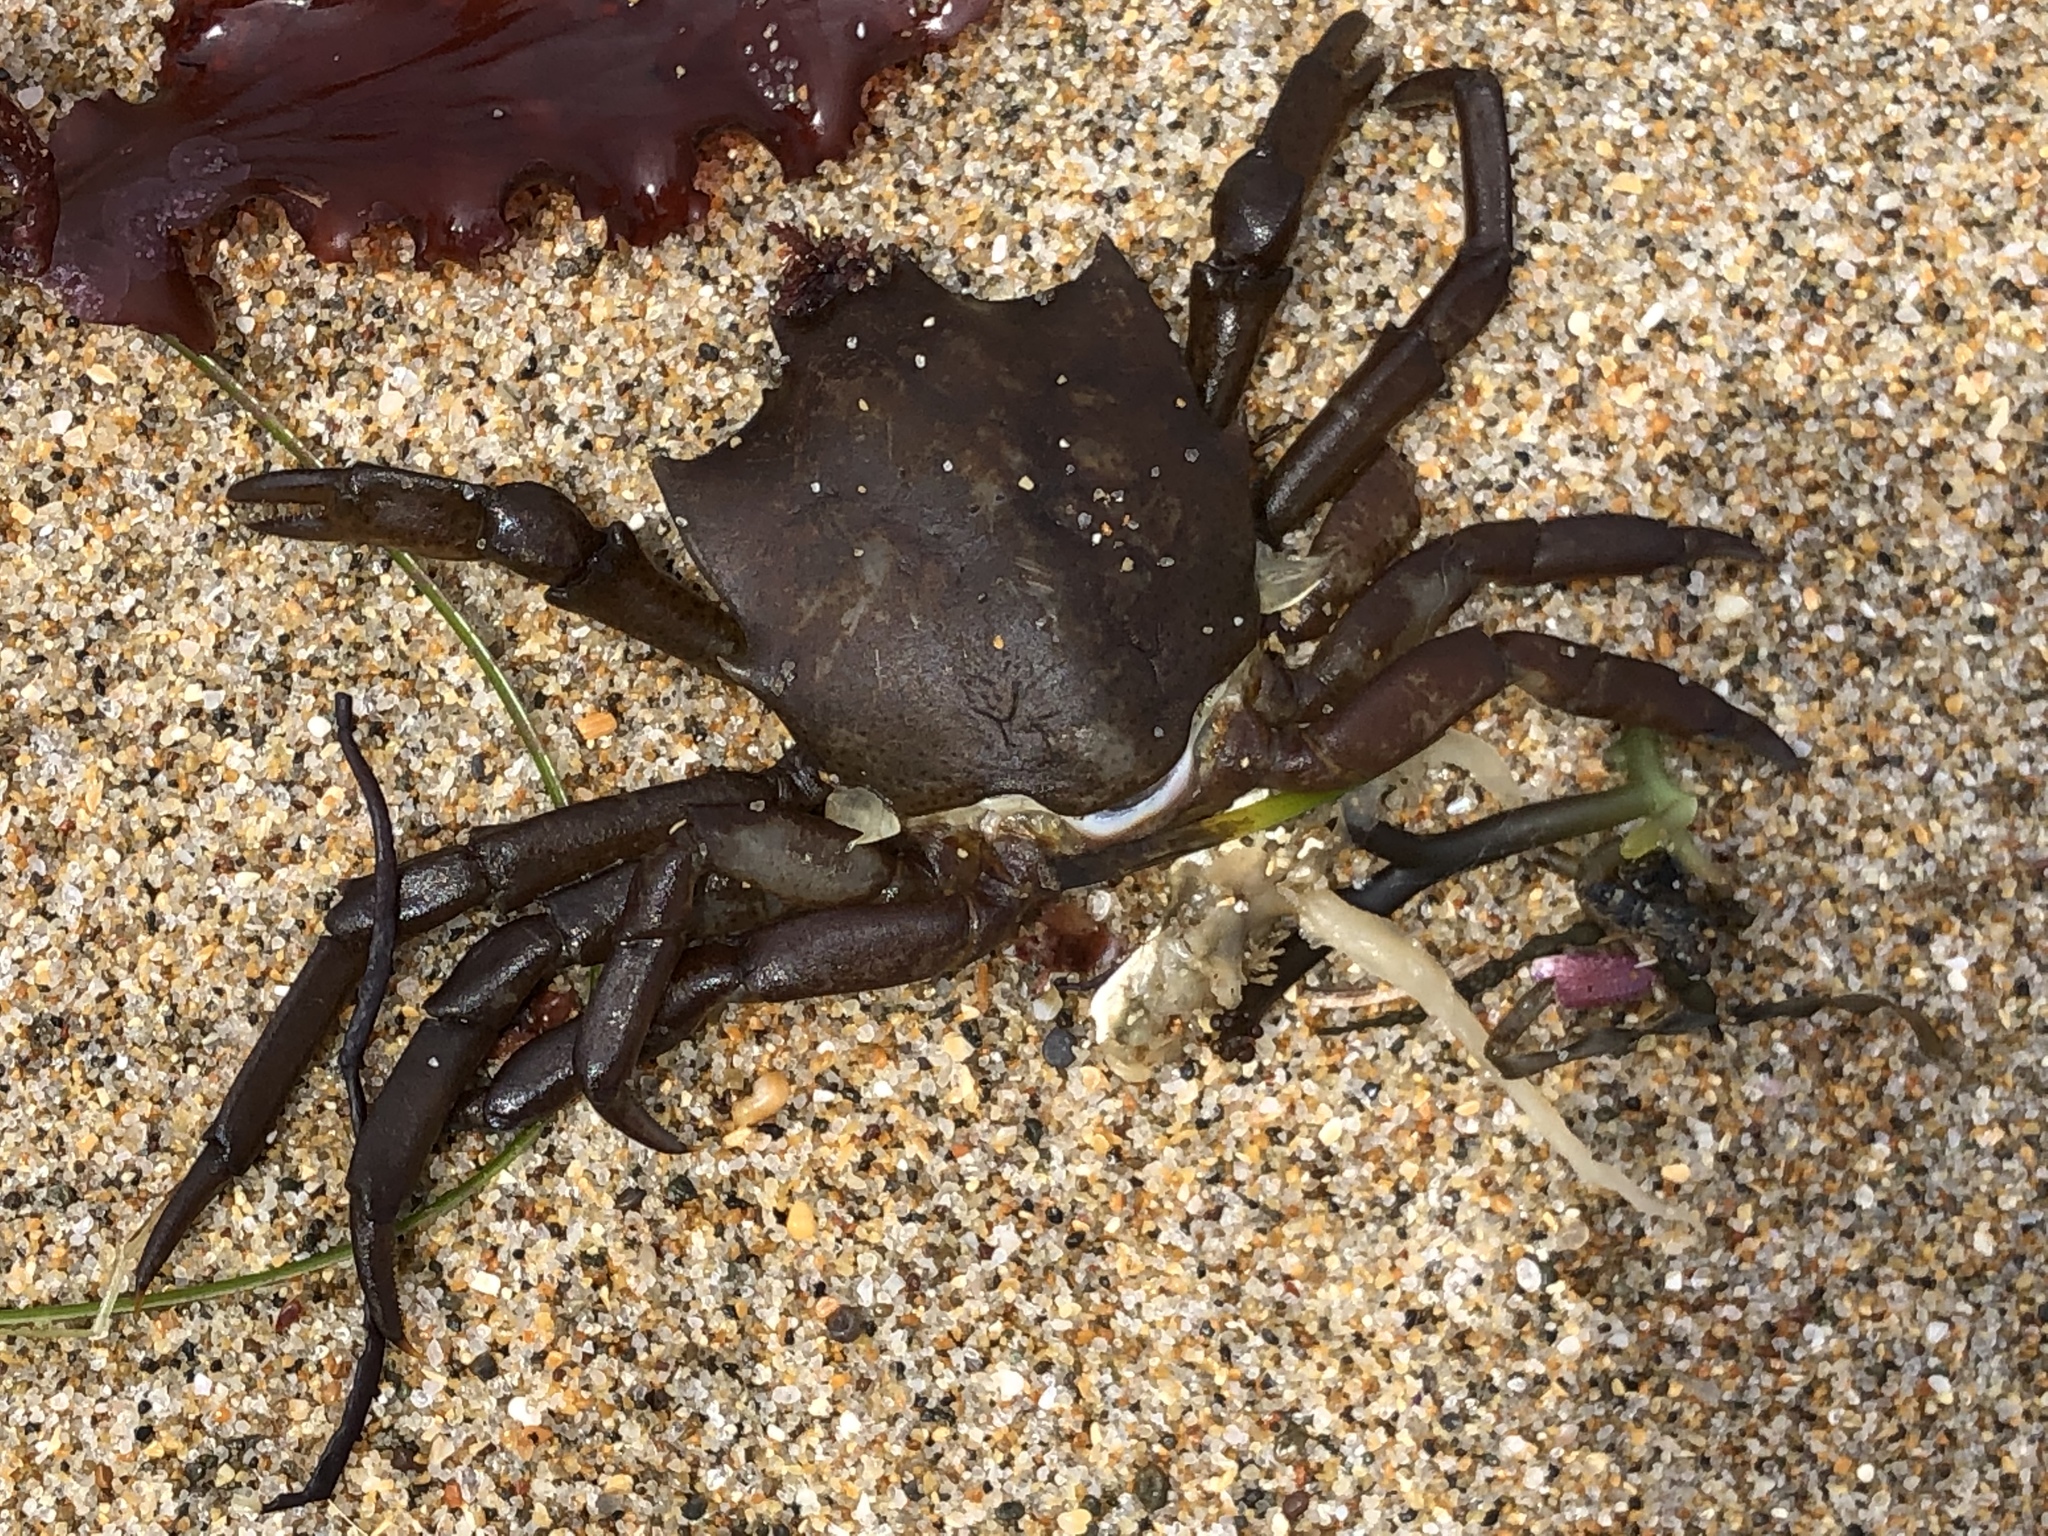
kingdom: Animalia
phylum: Arthropoda
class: Malacostraca
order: Decapoda
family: Epialtidae
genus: Pugettia
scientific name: Pugettia producta
